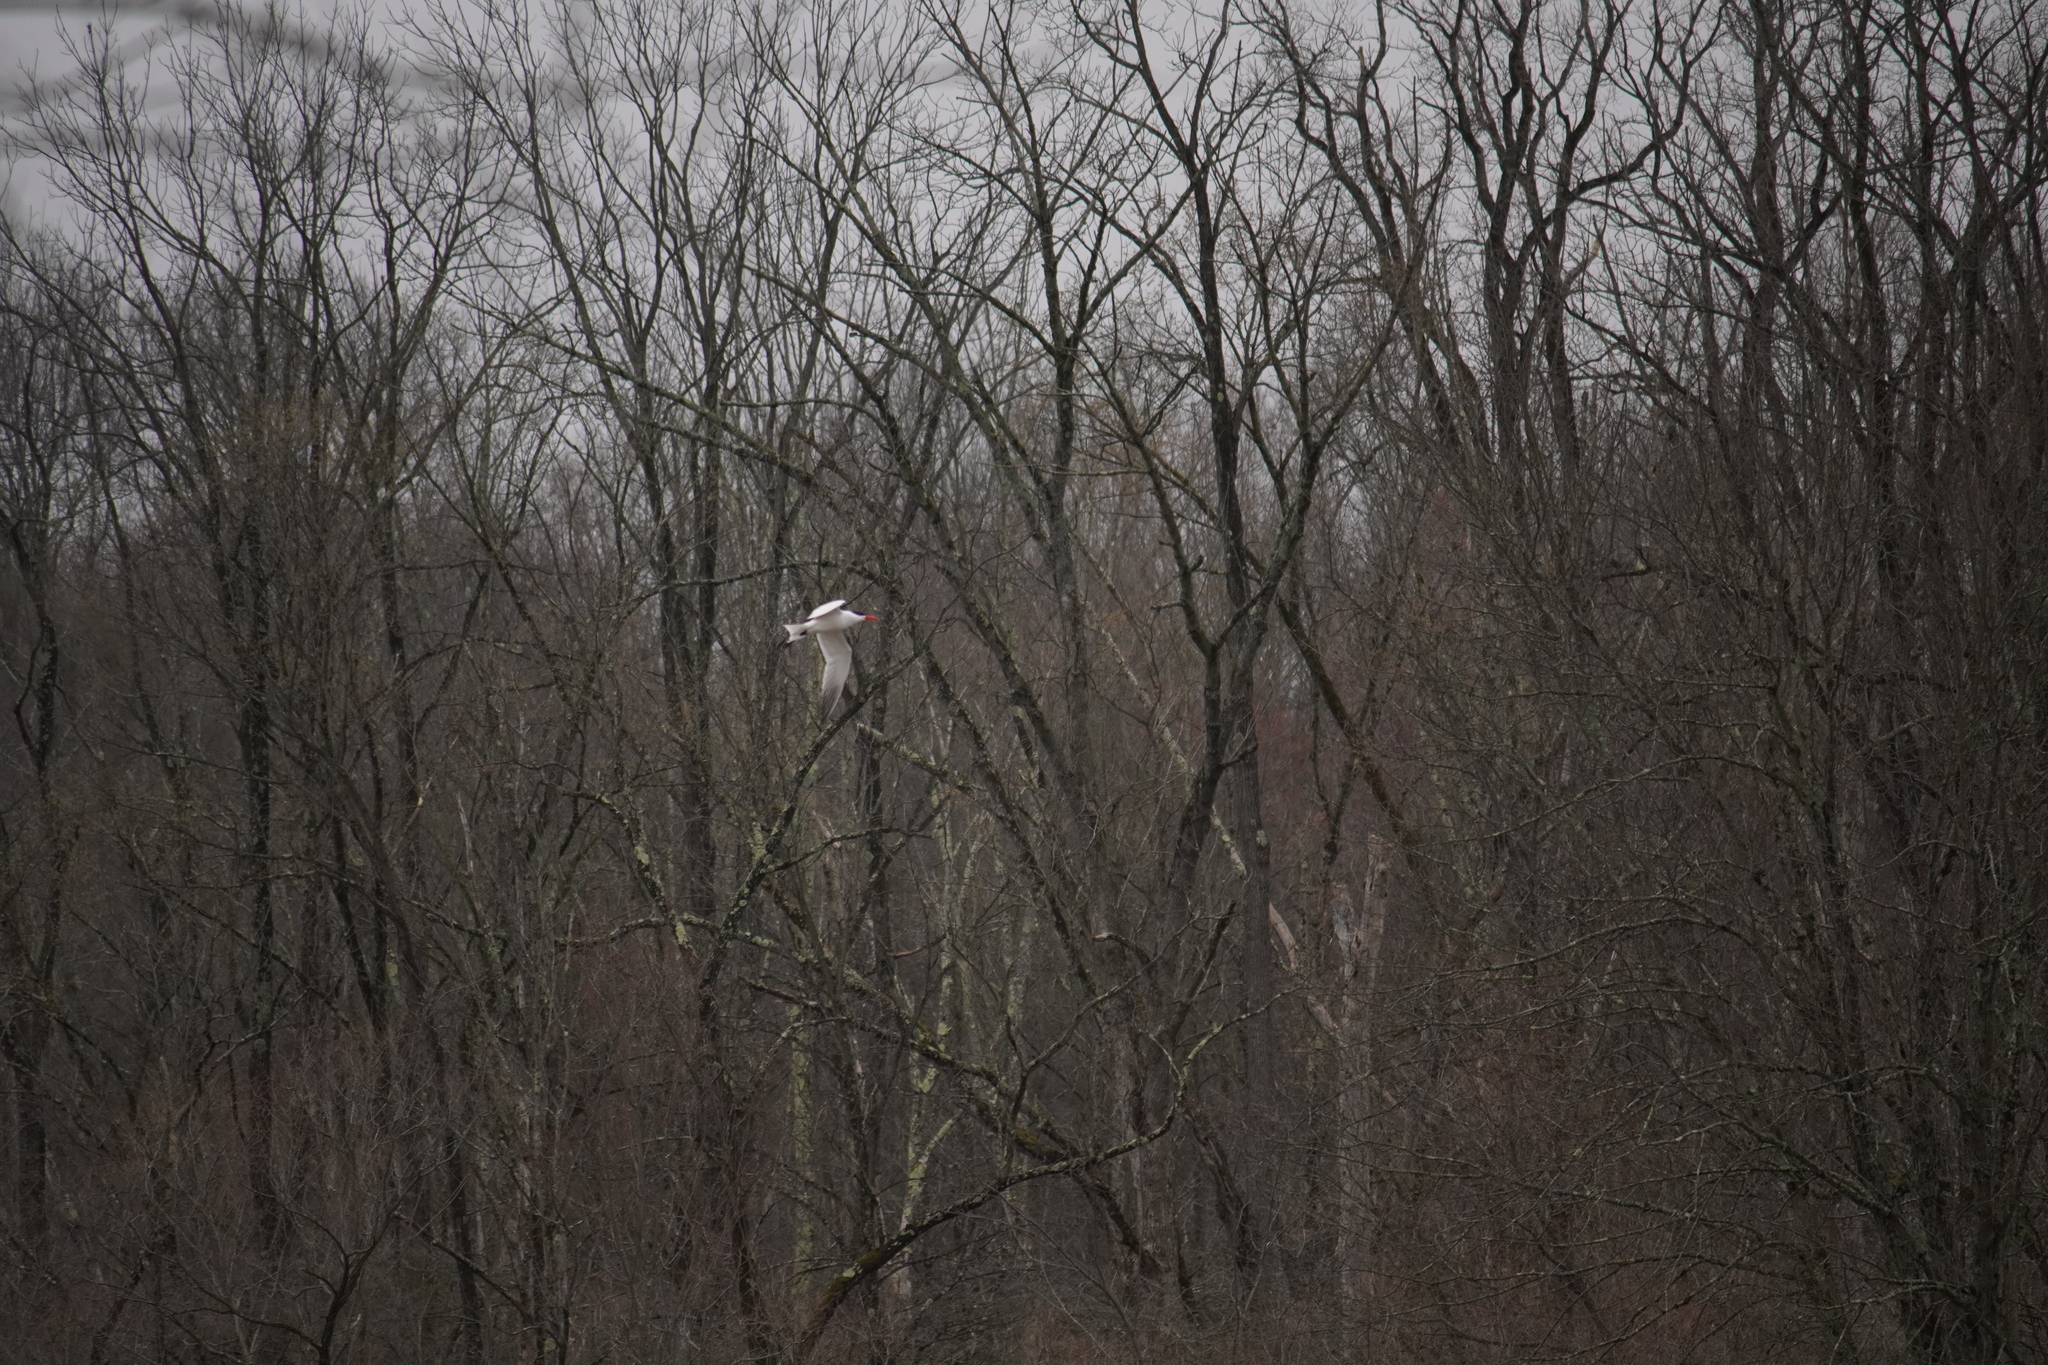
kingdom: Animalia
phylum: Chordata
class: Aves
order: Charadriiformes
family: Laridae
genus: Hydroprogne
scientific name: Hydroprogne caspia
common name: Caspian tern
